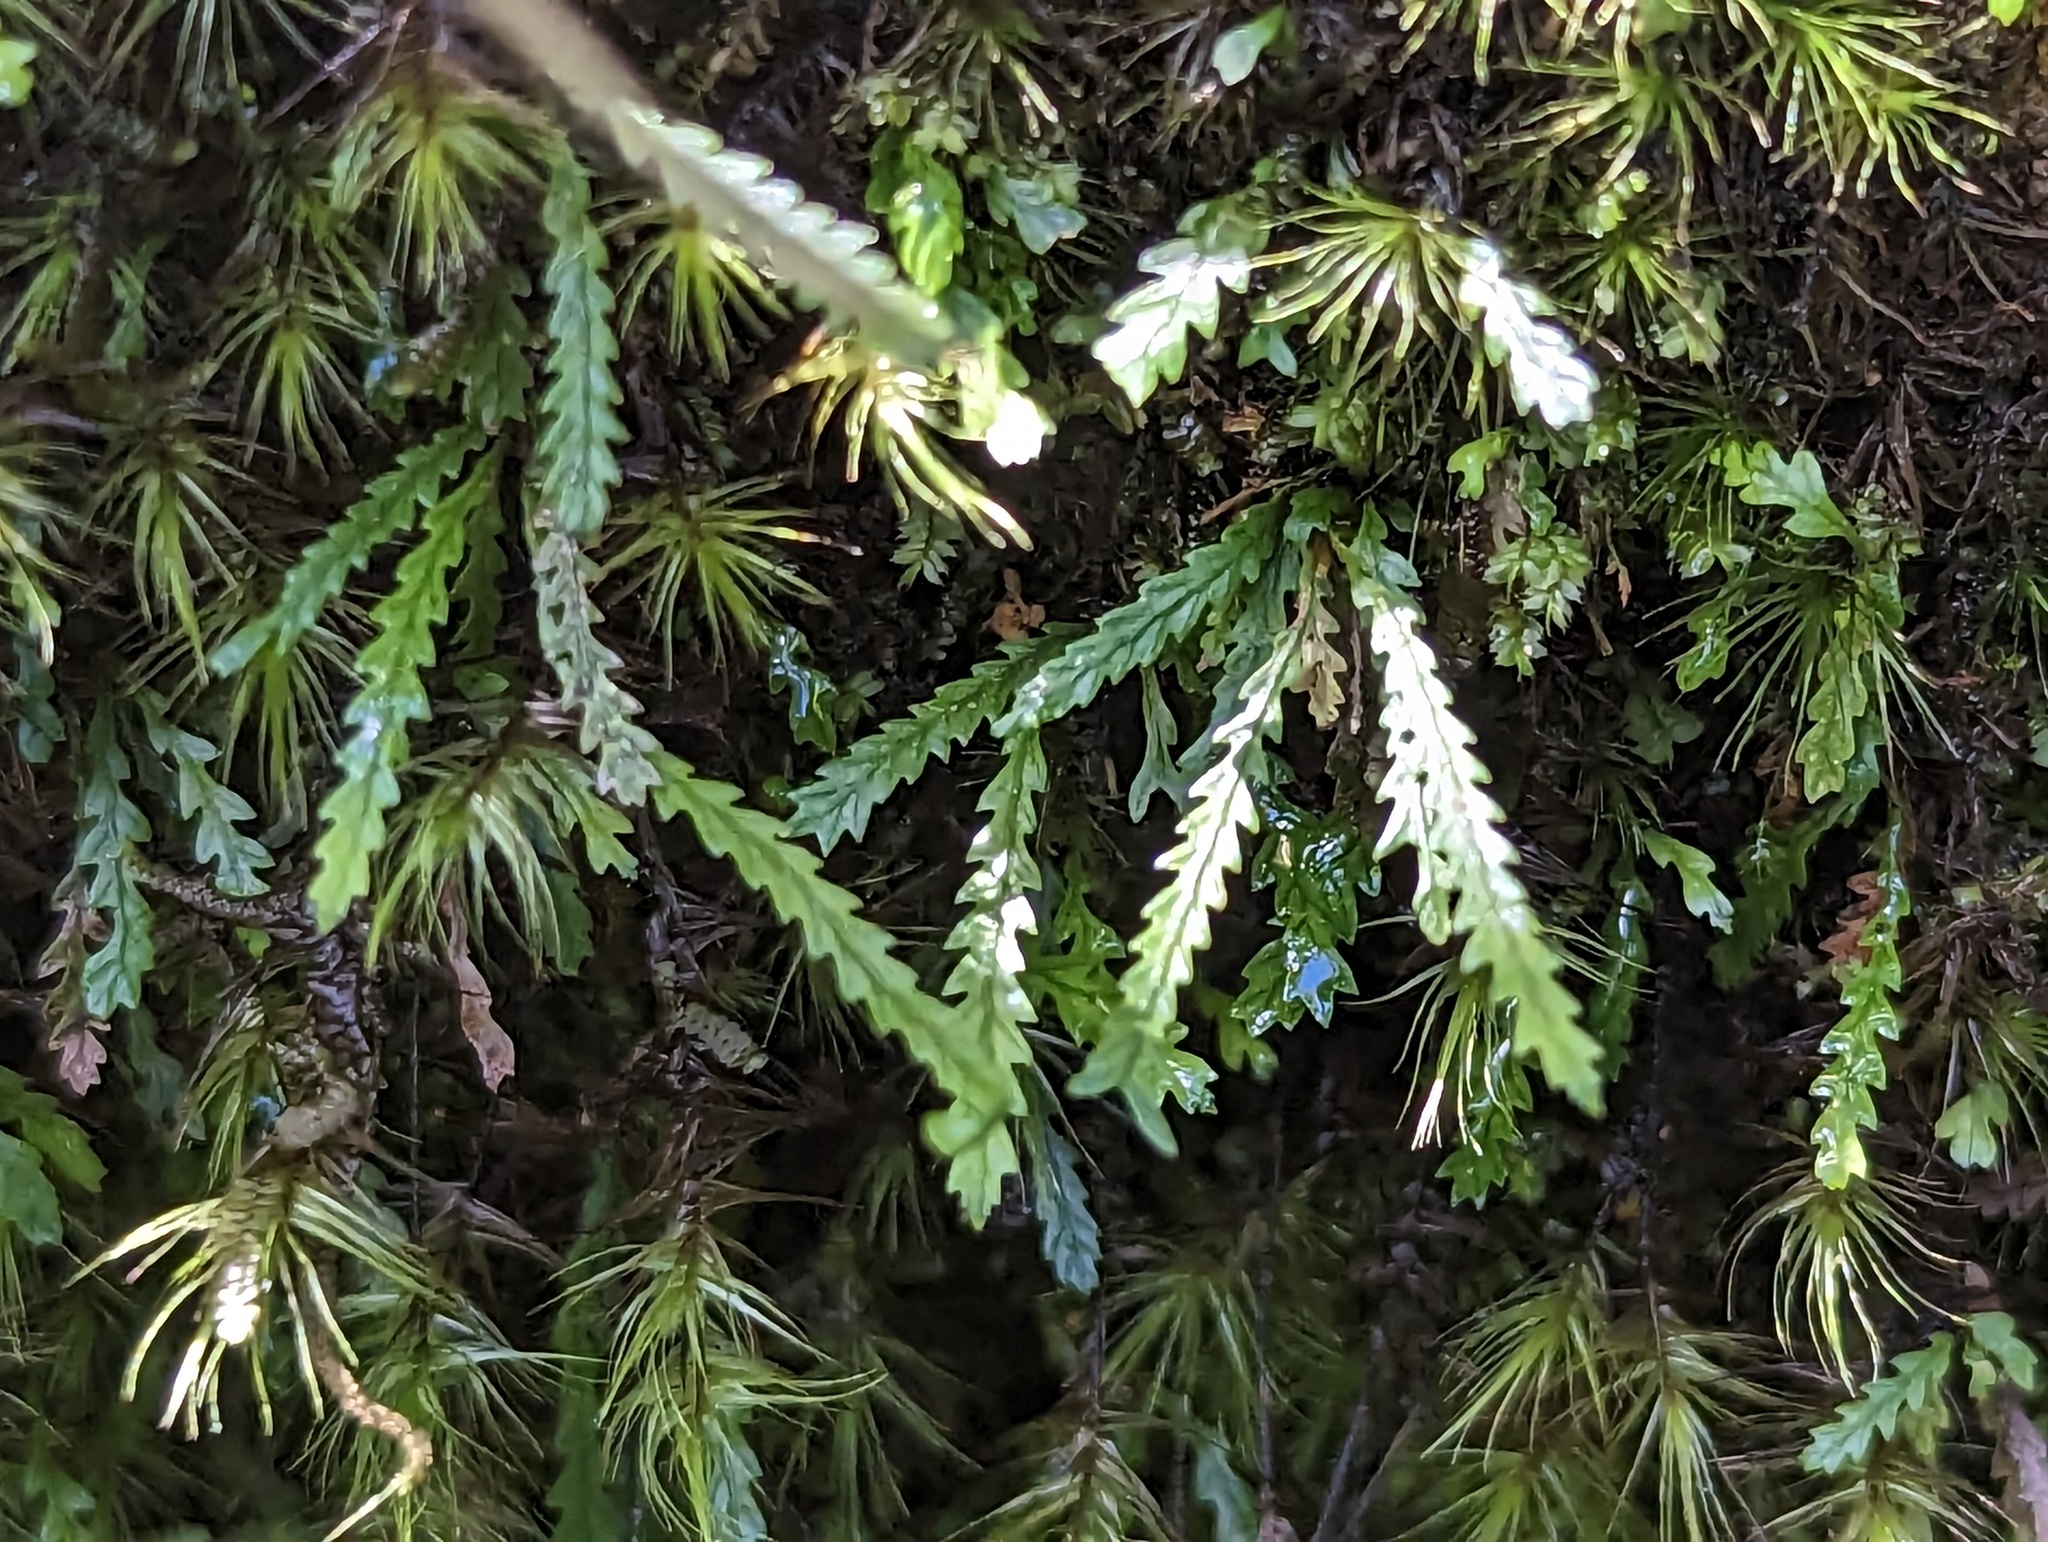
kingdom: Plantae
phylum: Tracheophyta
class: Polypodiopsida
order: Polypodiales
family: Polypodiaceae
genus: Cochlidium
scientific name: Cochlidium serrulatum
